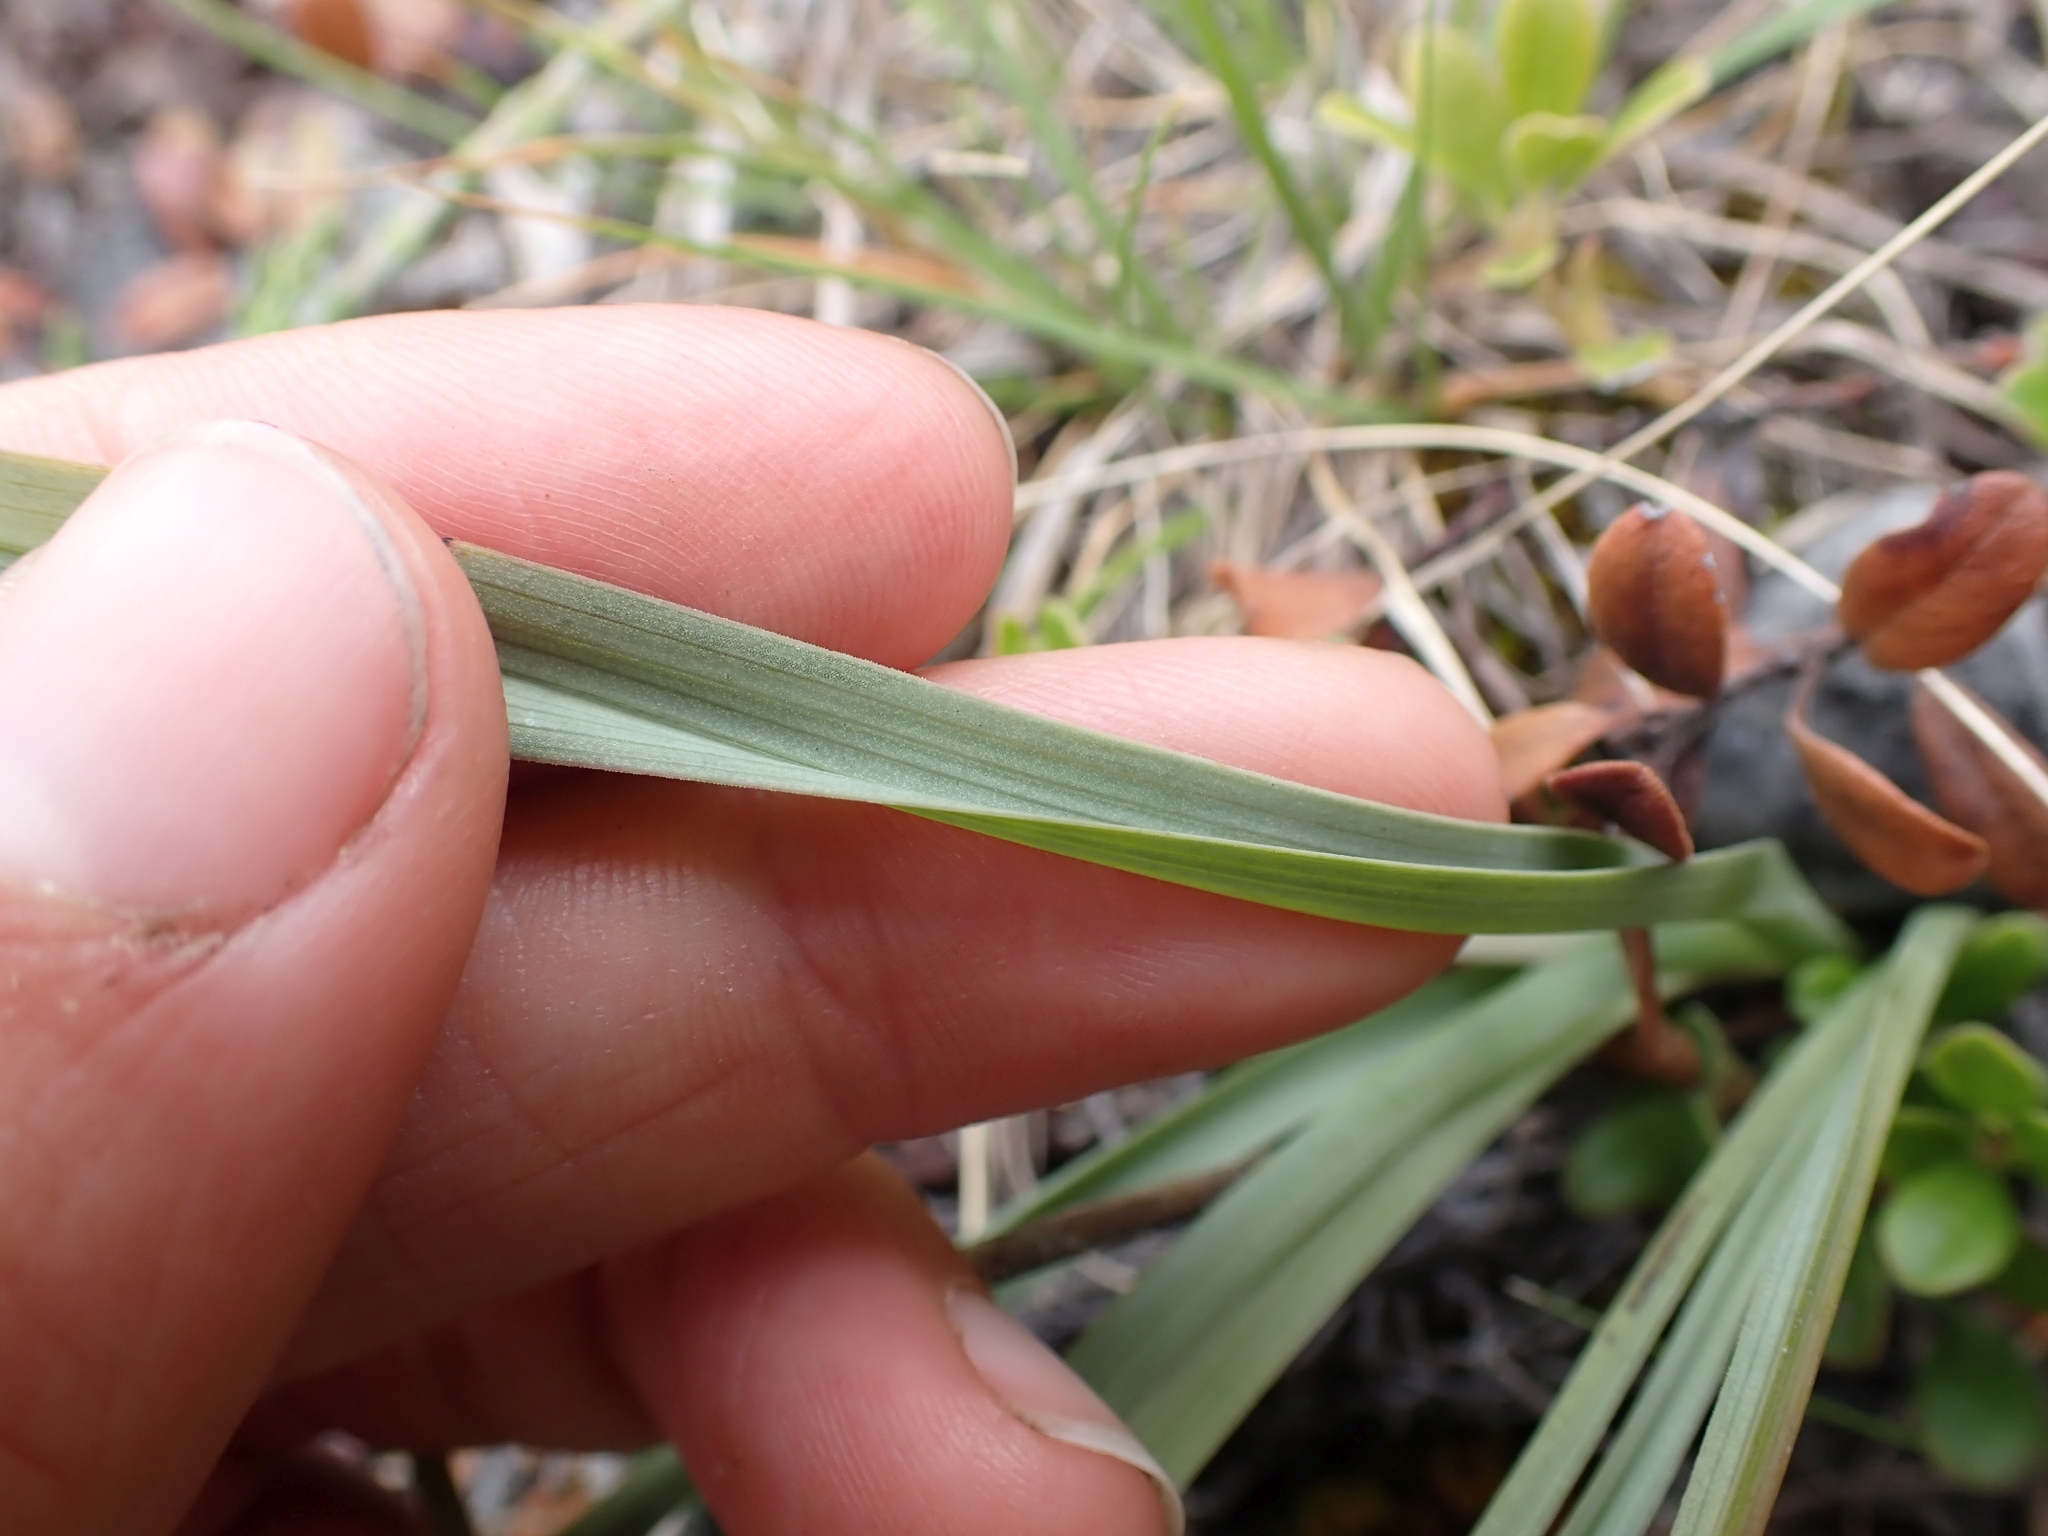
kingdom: Plantae
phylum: Tracheophyta
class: Liliopsida
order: Liliales
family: Melanthiaceae
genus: Anticlea
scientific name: Anticlea elegans
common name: Mountain death camas
